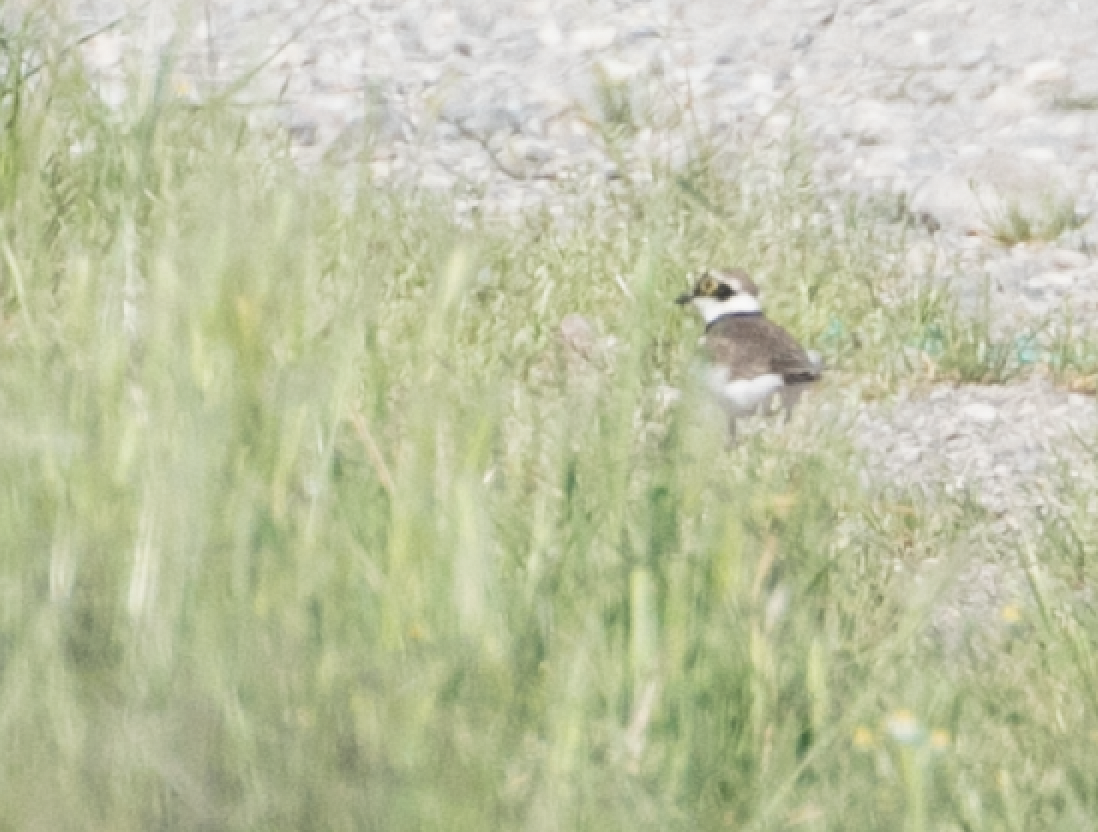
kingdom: Animalia
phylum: Chordata
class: Aves
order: Charadriiformes
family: Charadriidae
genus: Charadrius
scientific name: Charadrius dubius
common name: Little ringed plover
